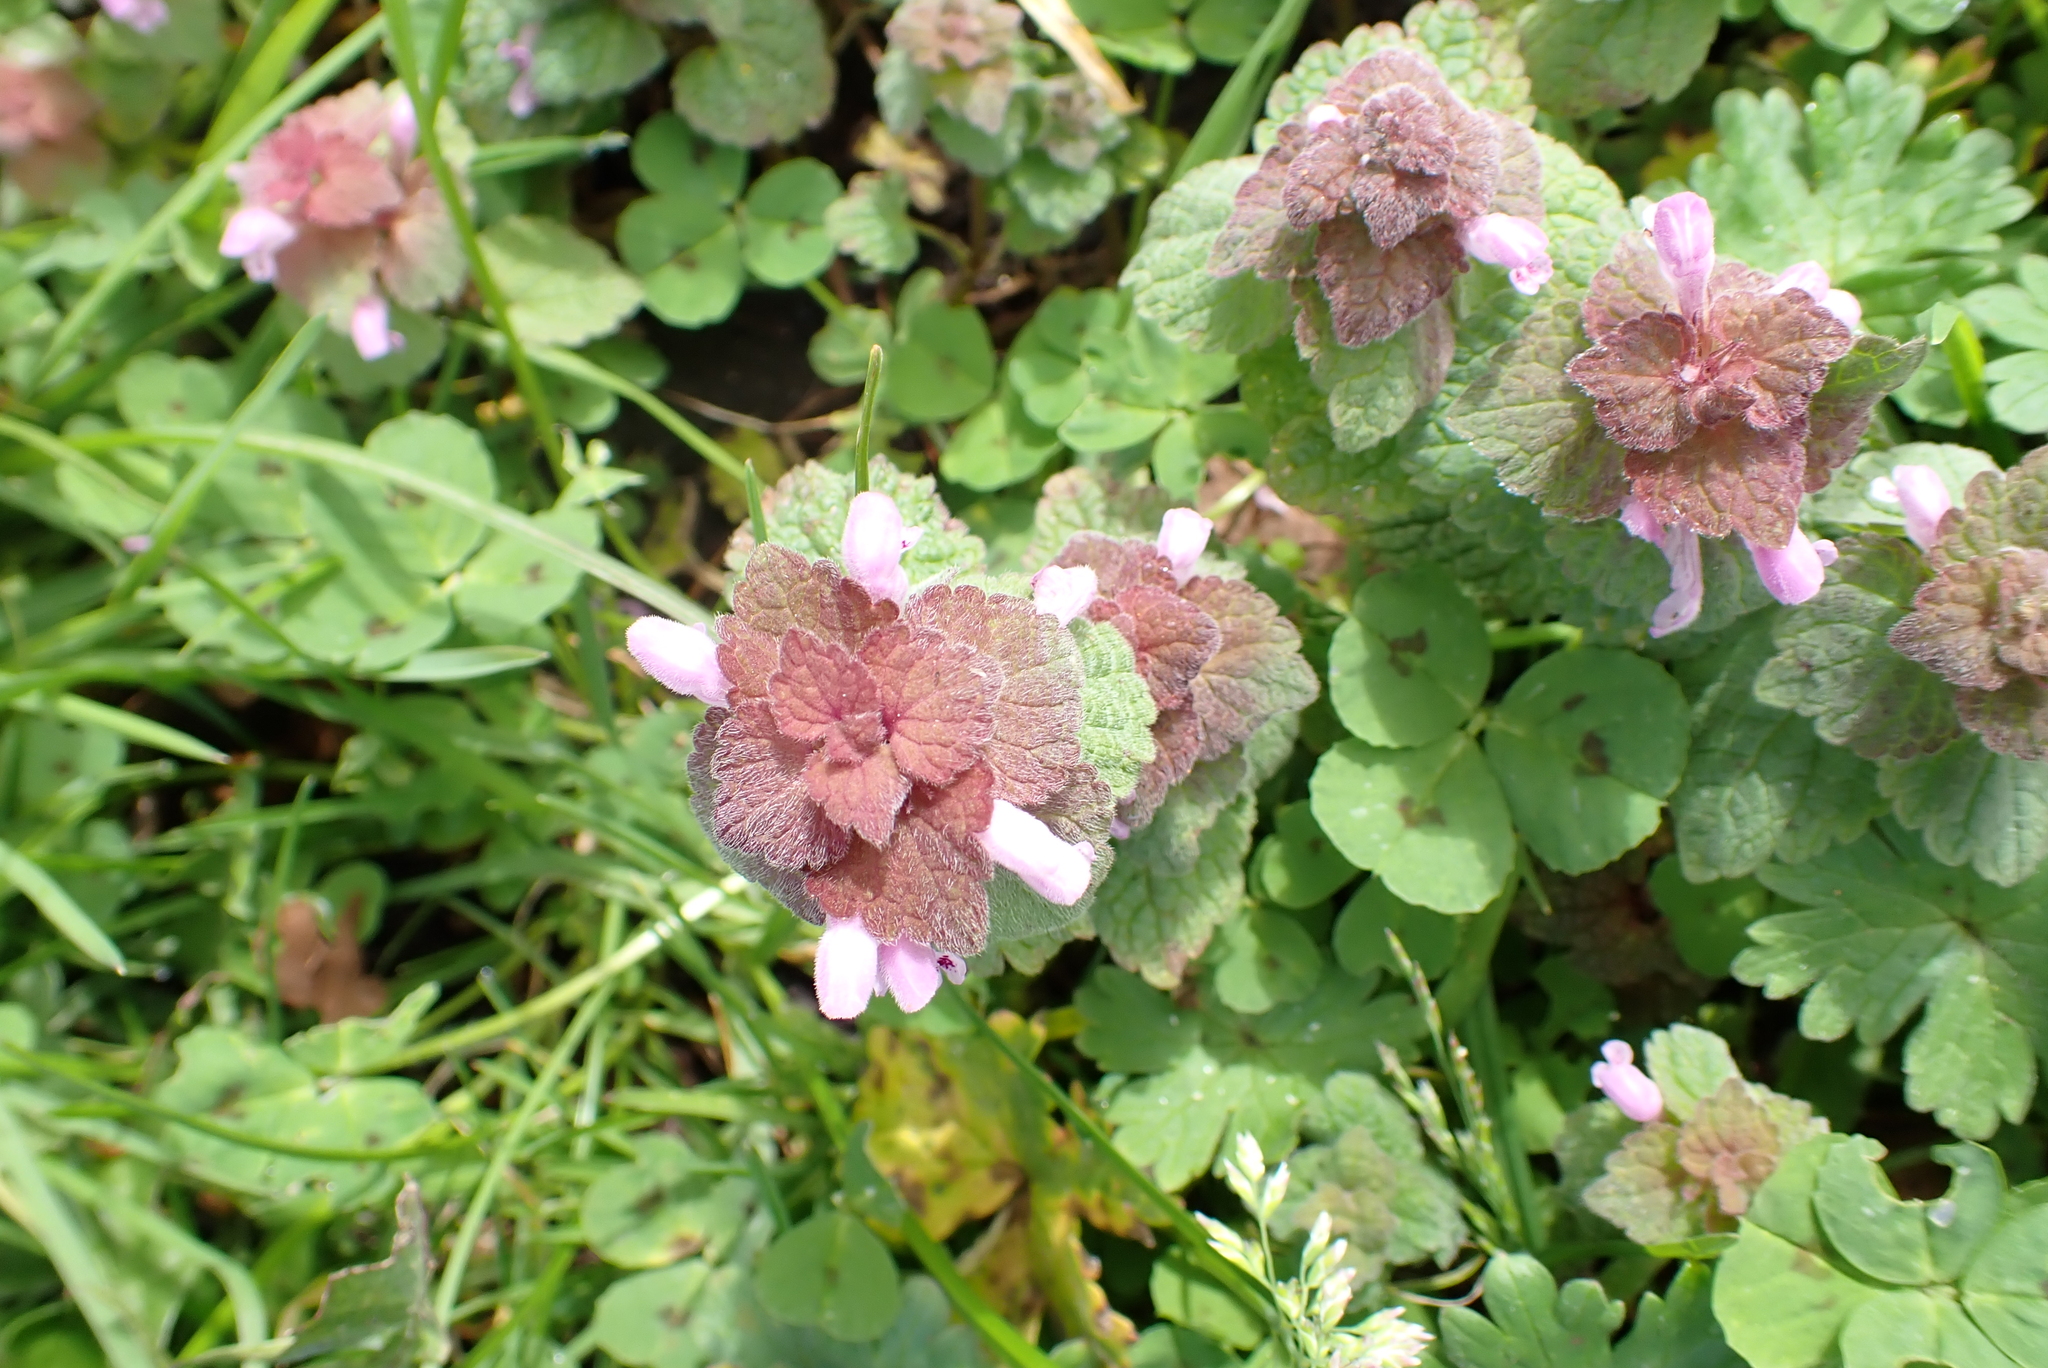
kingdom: Plantae
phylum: Tracheophyta
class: Magnoliopsida
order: Lamiales
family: Lamiaceae
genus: Lamium
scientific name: Lamium purpureum
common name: Red dead-nettle
